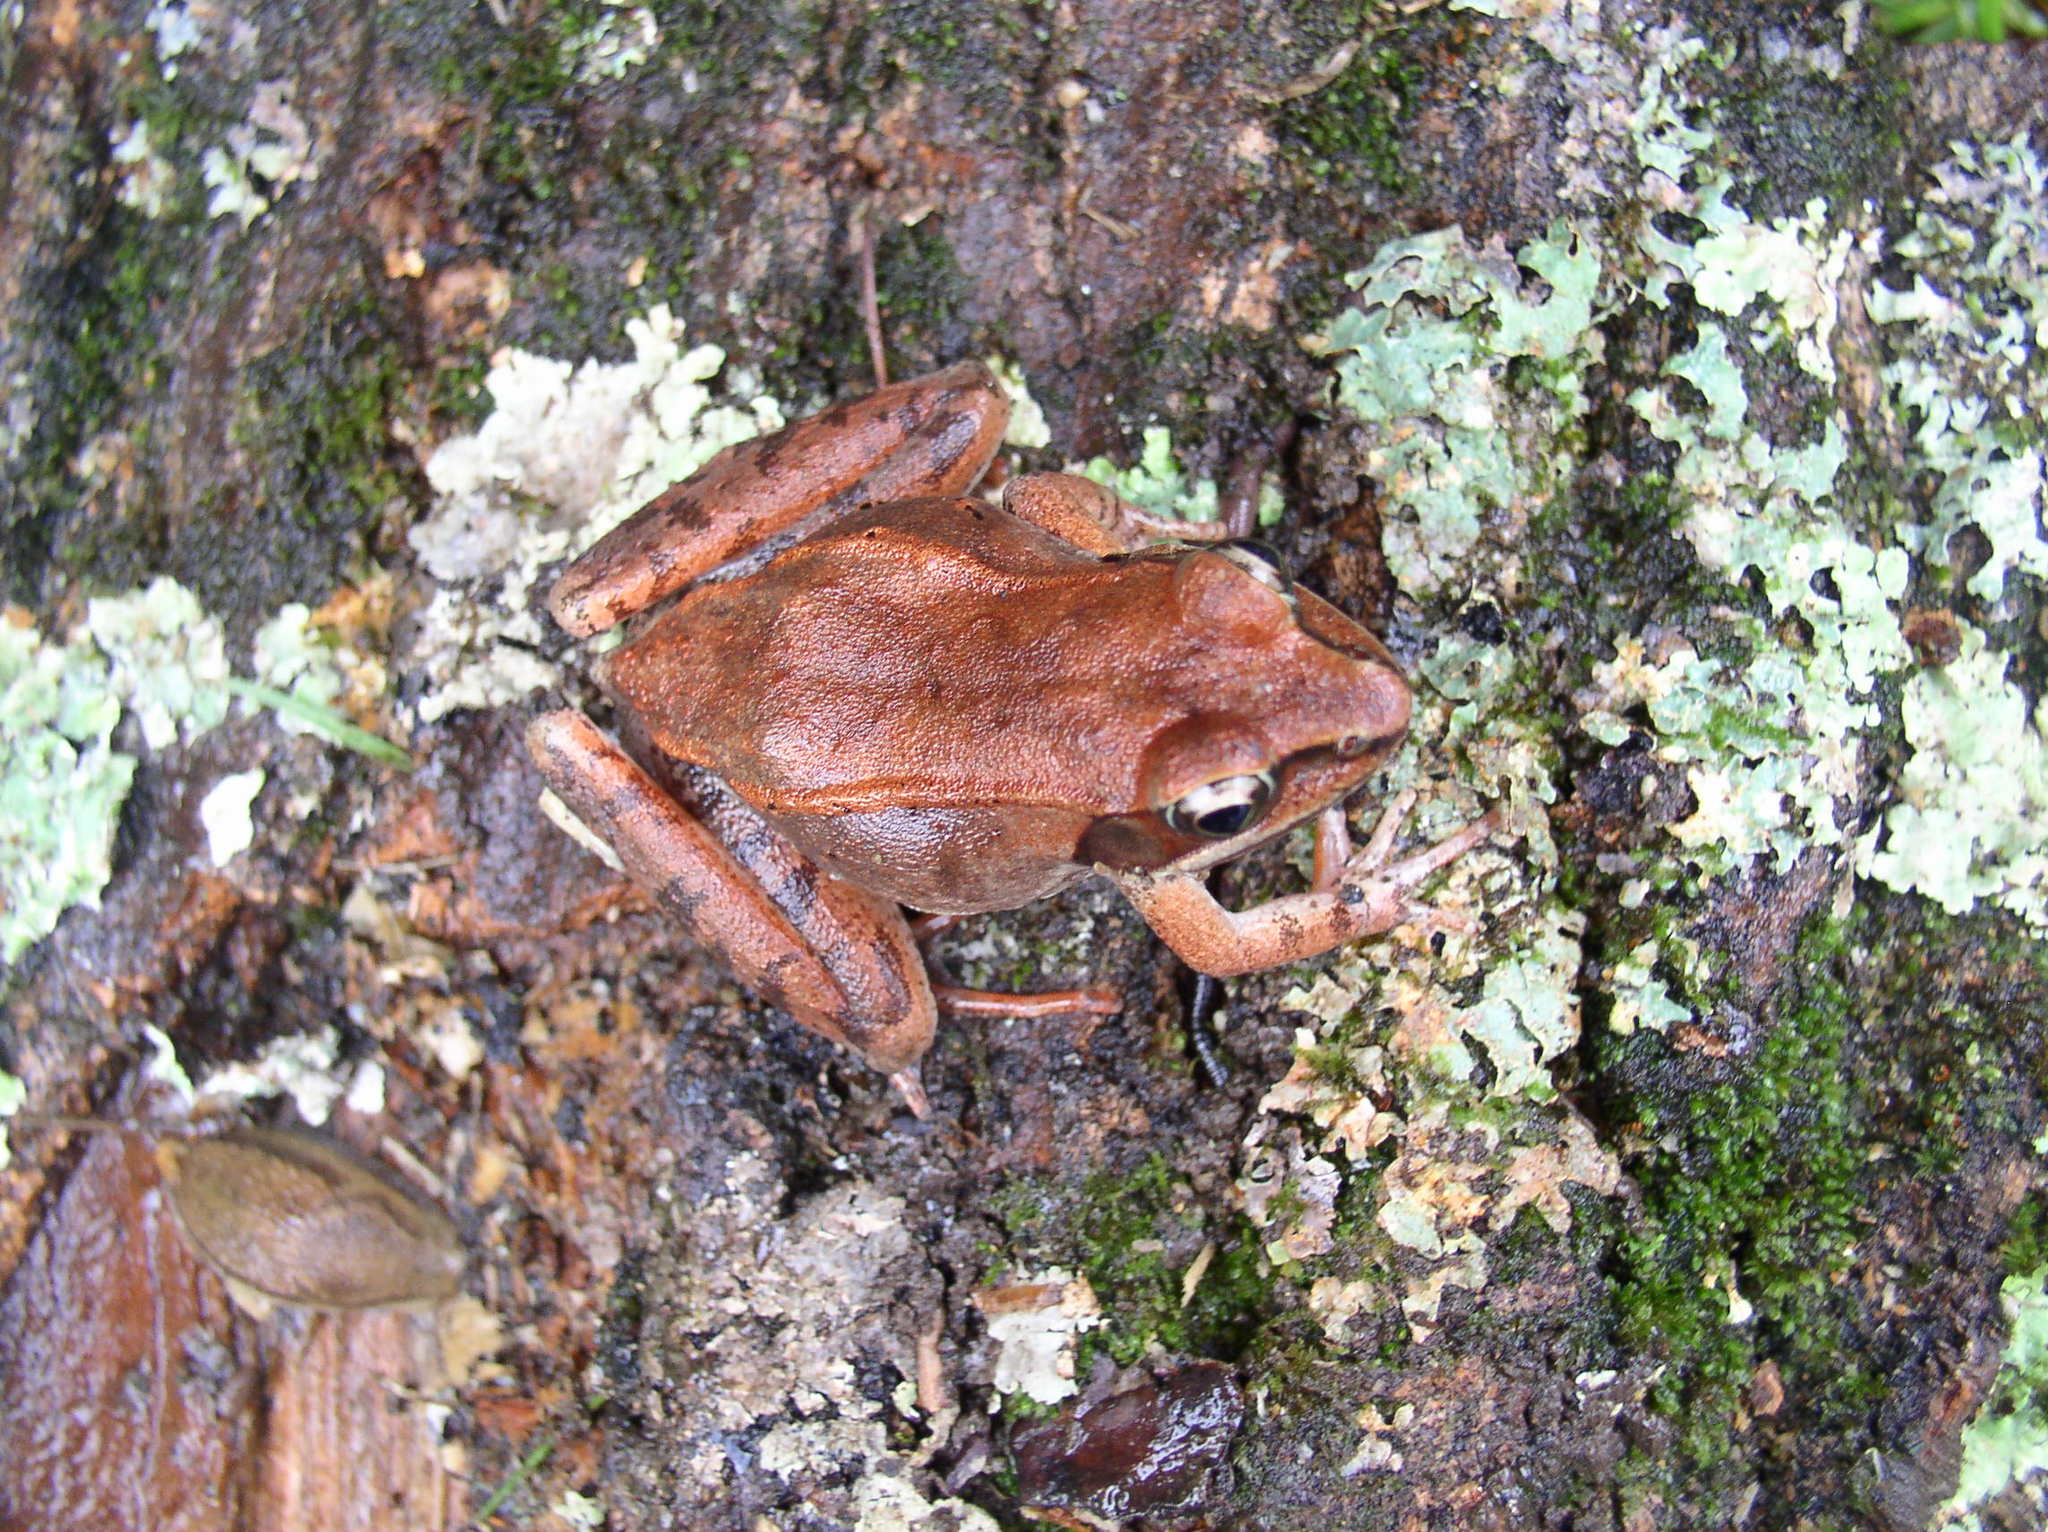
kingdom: Animalia
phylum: Chordata
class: Amphibia
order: Anura
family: Ranidae
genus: Lithobates
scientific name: Lithobates sylvaticus
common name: Wood frog
